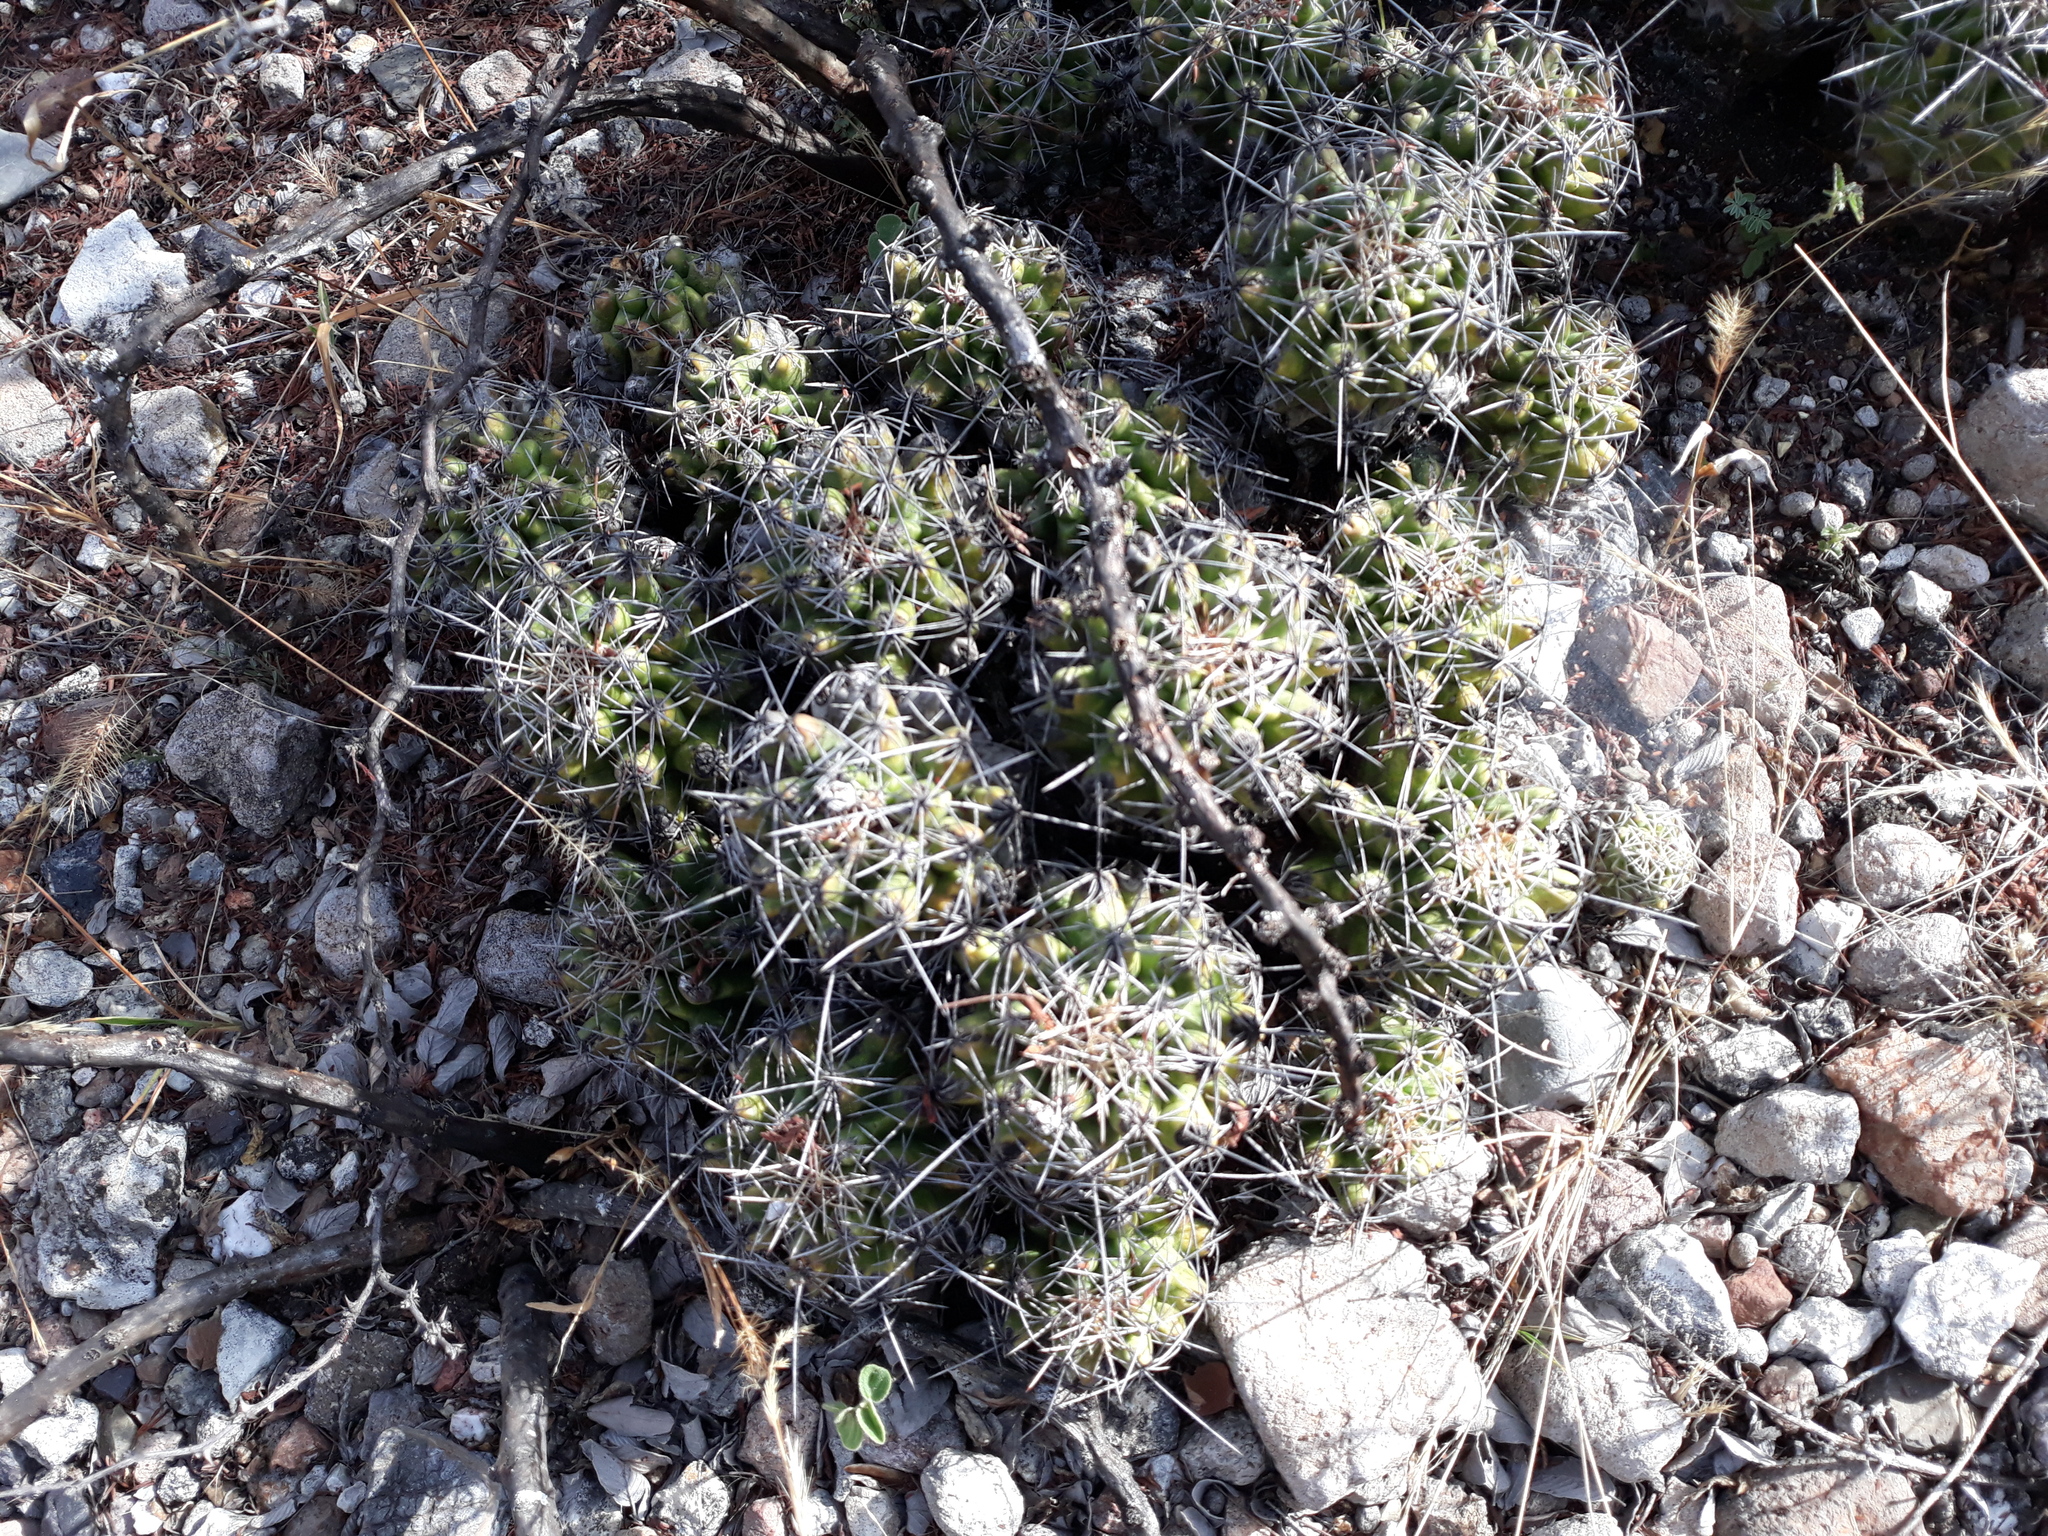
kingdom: Plantae
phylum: Tracheophyta
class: Magnoliopsida
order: Caryophyllales
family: Cactaceae
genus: Thelocactus
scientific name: Thelocactus leucacanthus
